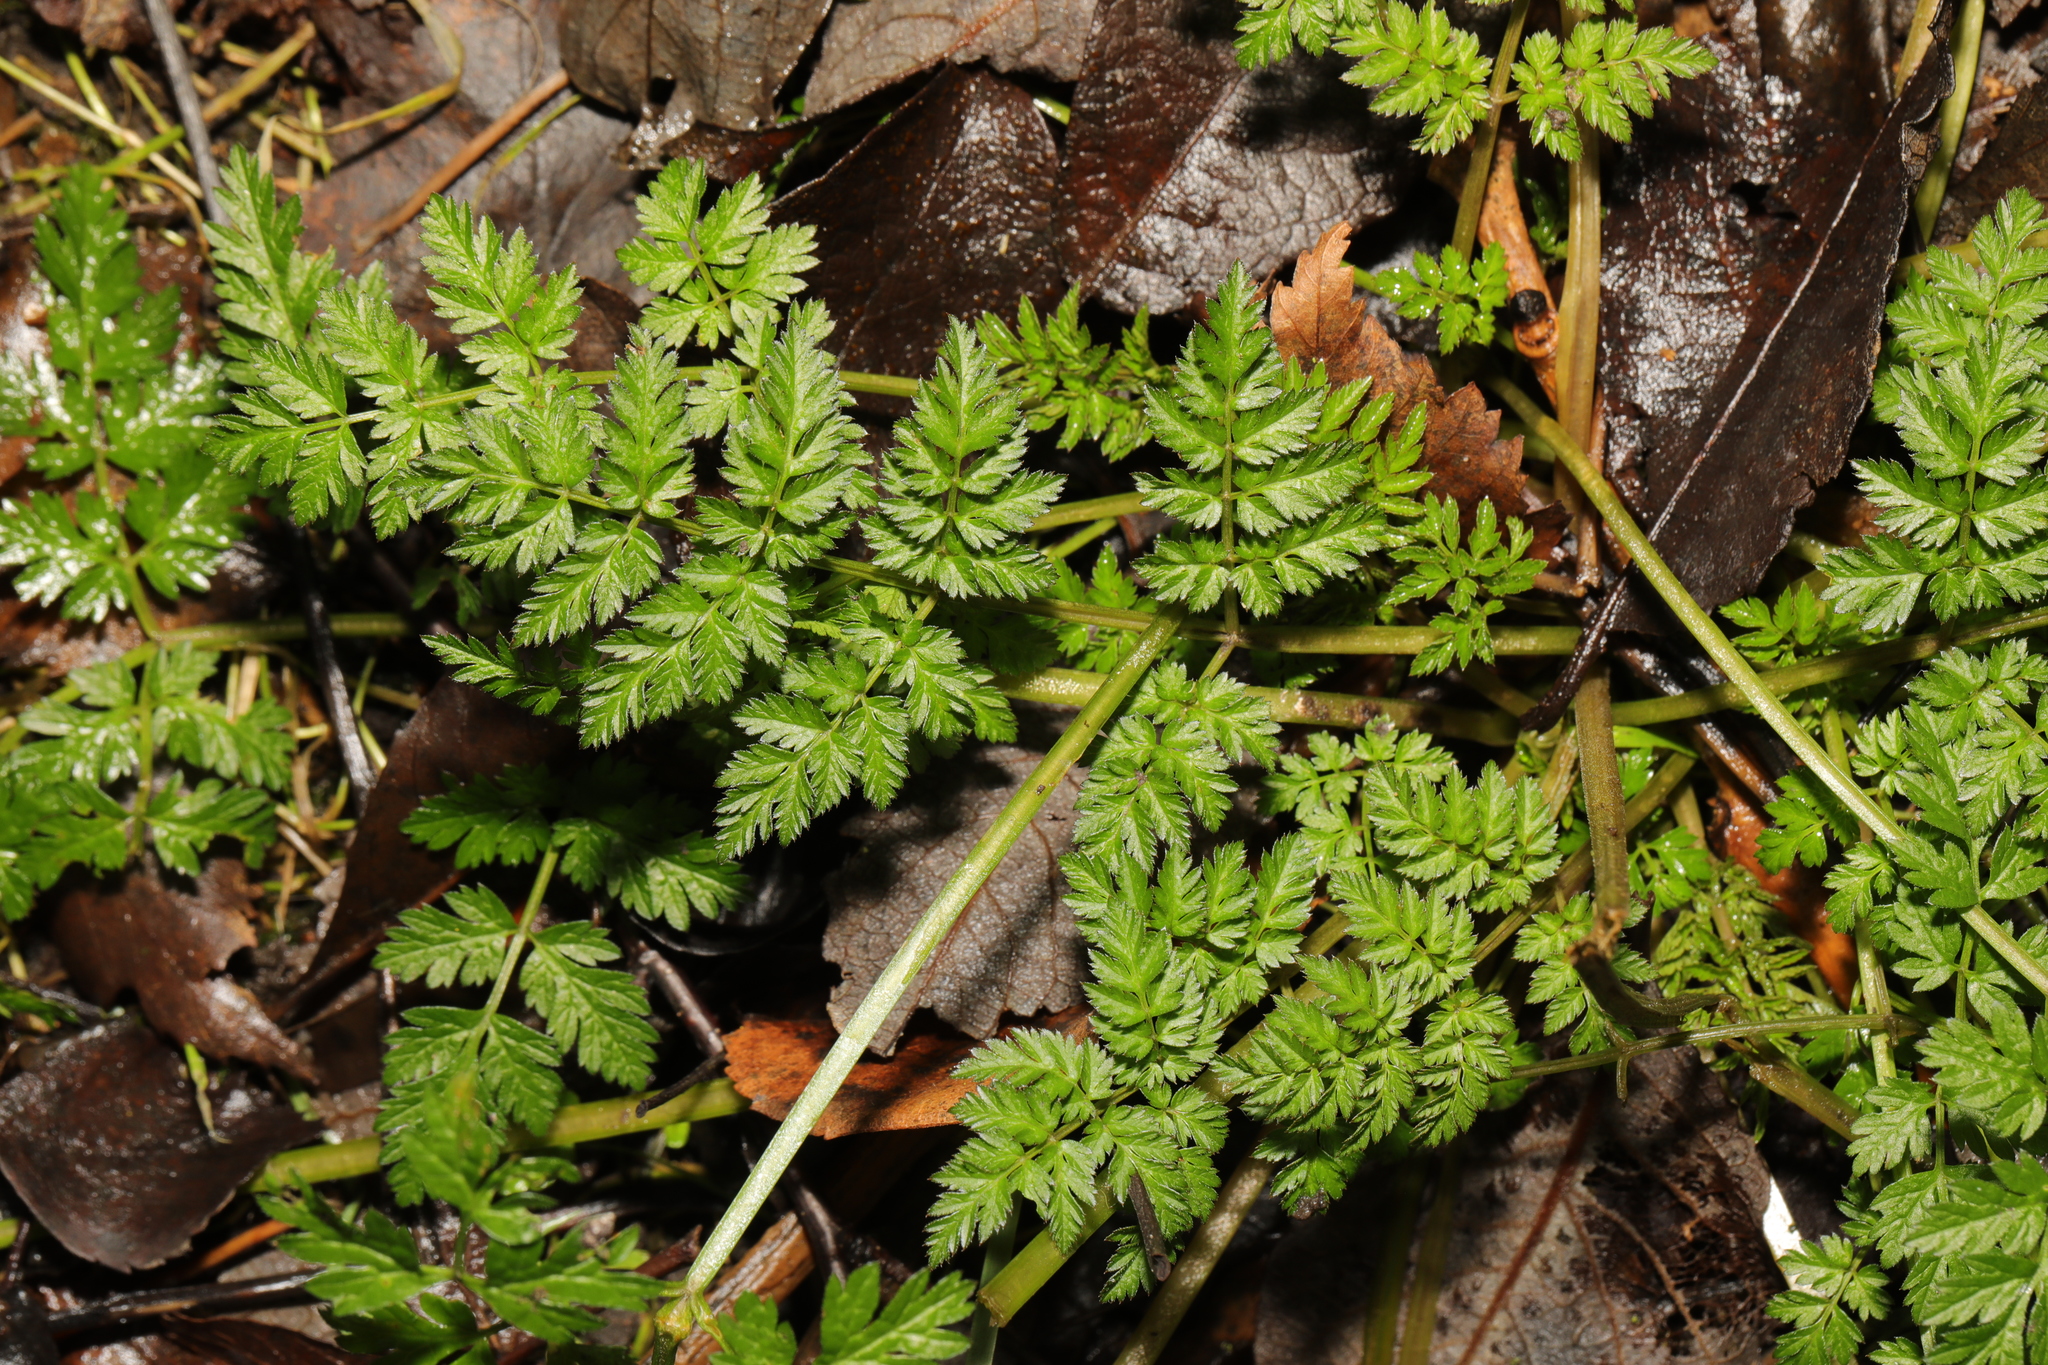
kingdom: Plantae
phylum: Tracheophyta
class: Magnoliopsida
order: Apiales
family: Apiaceae
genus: Anthriscus
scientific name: Anthriscus sylvestris
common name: Cow parsley
